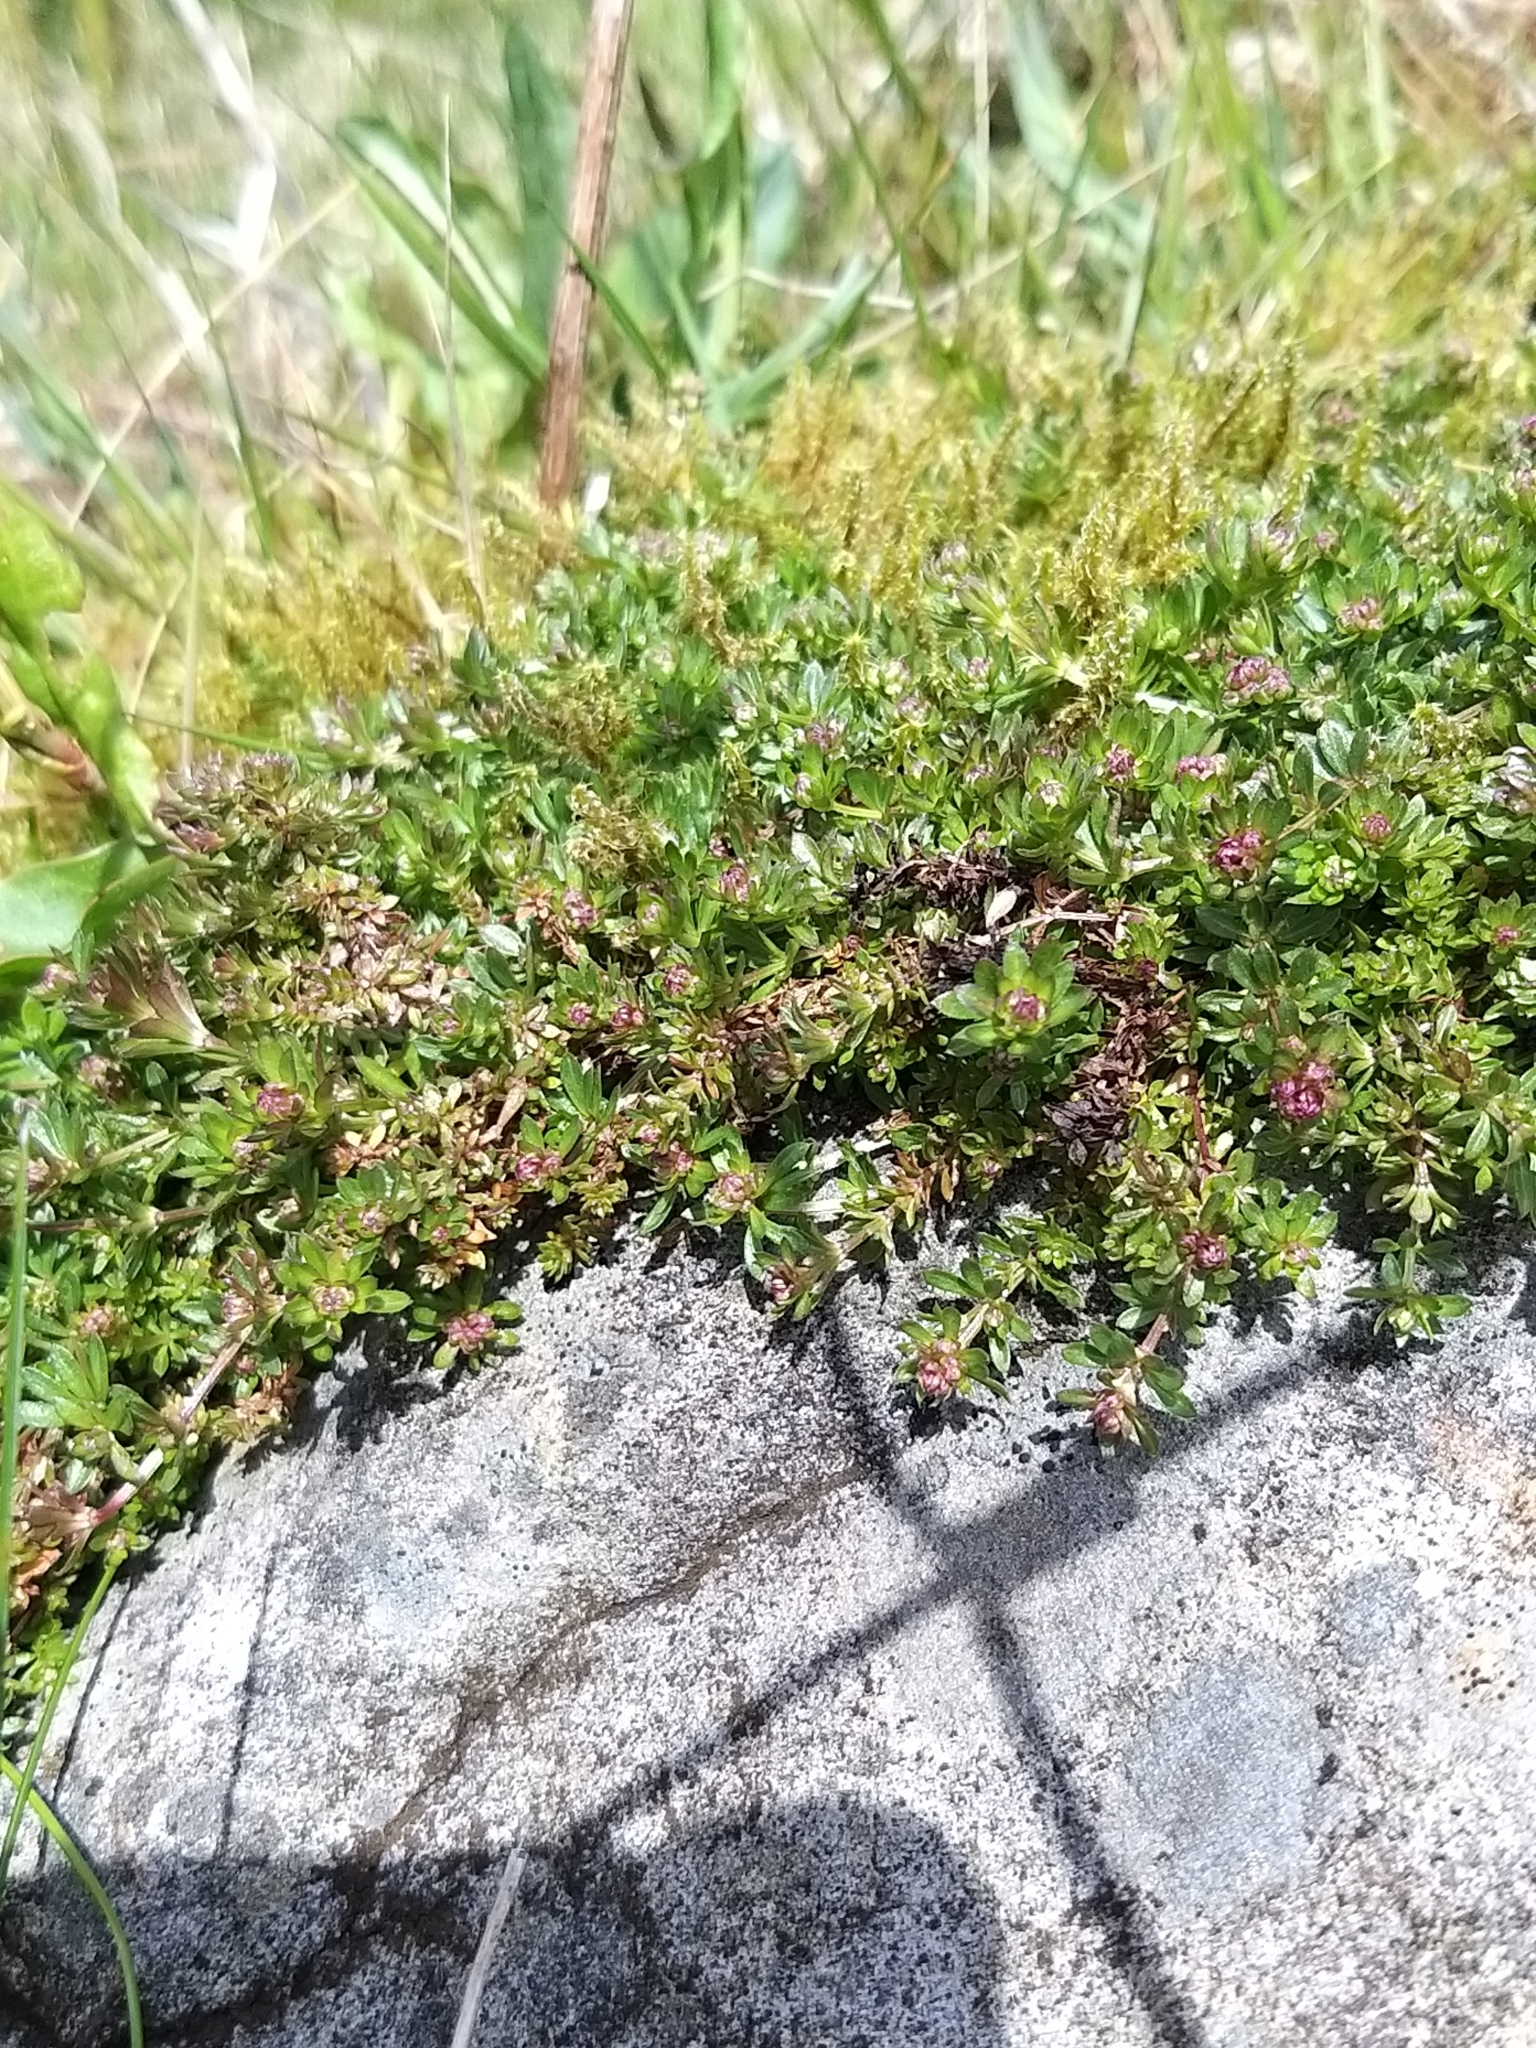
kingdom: Plantae
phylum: Tracheophyta
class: Magnoliopsida
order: Gentianales
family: Rubiaceae
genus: Galium
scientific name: Galium saxatile
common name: Heath bedstraw
